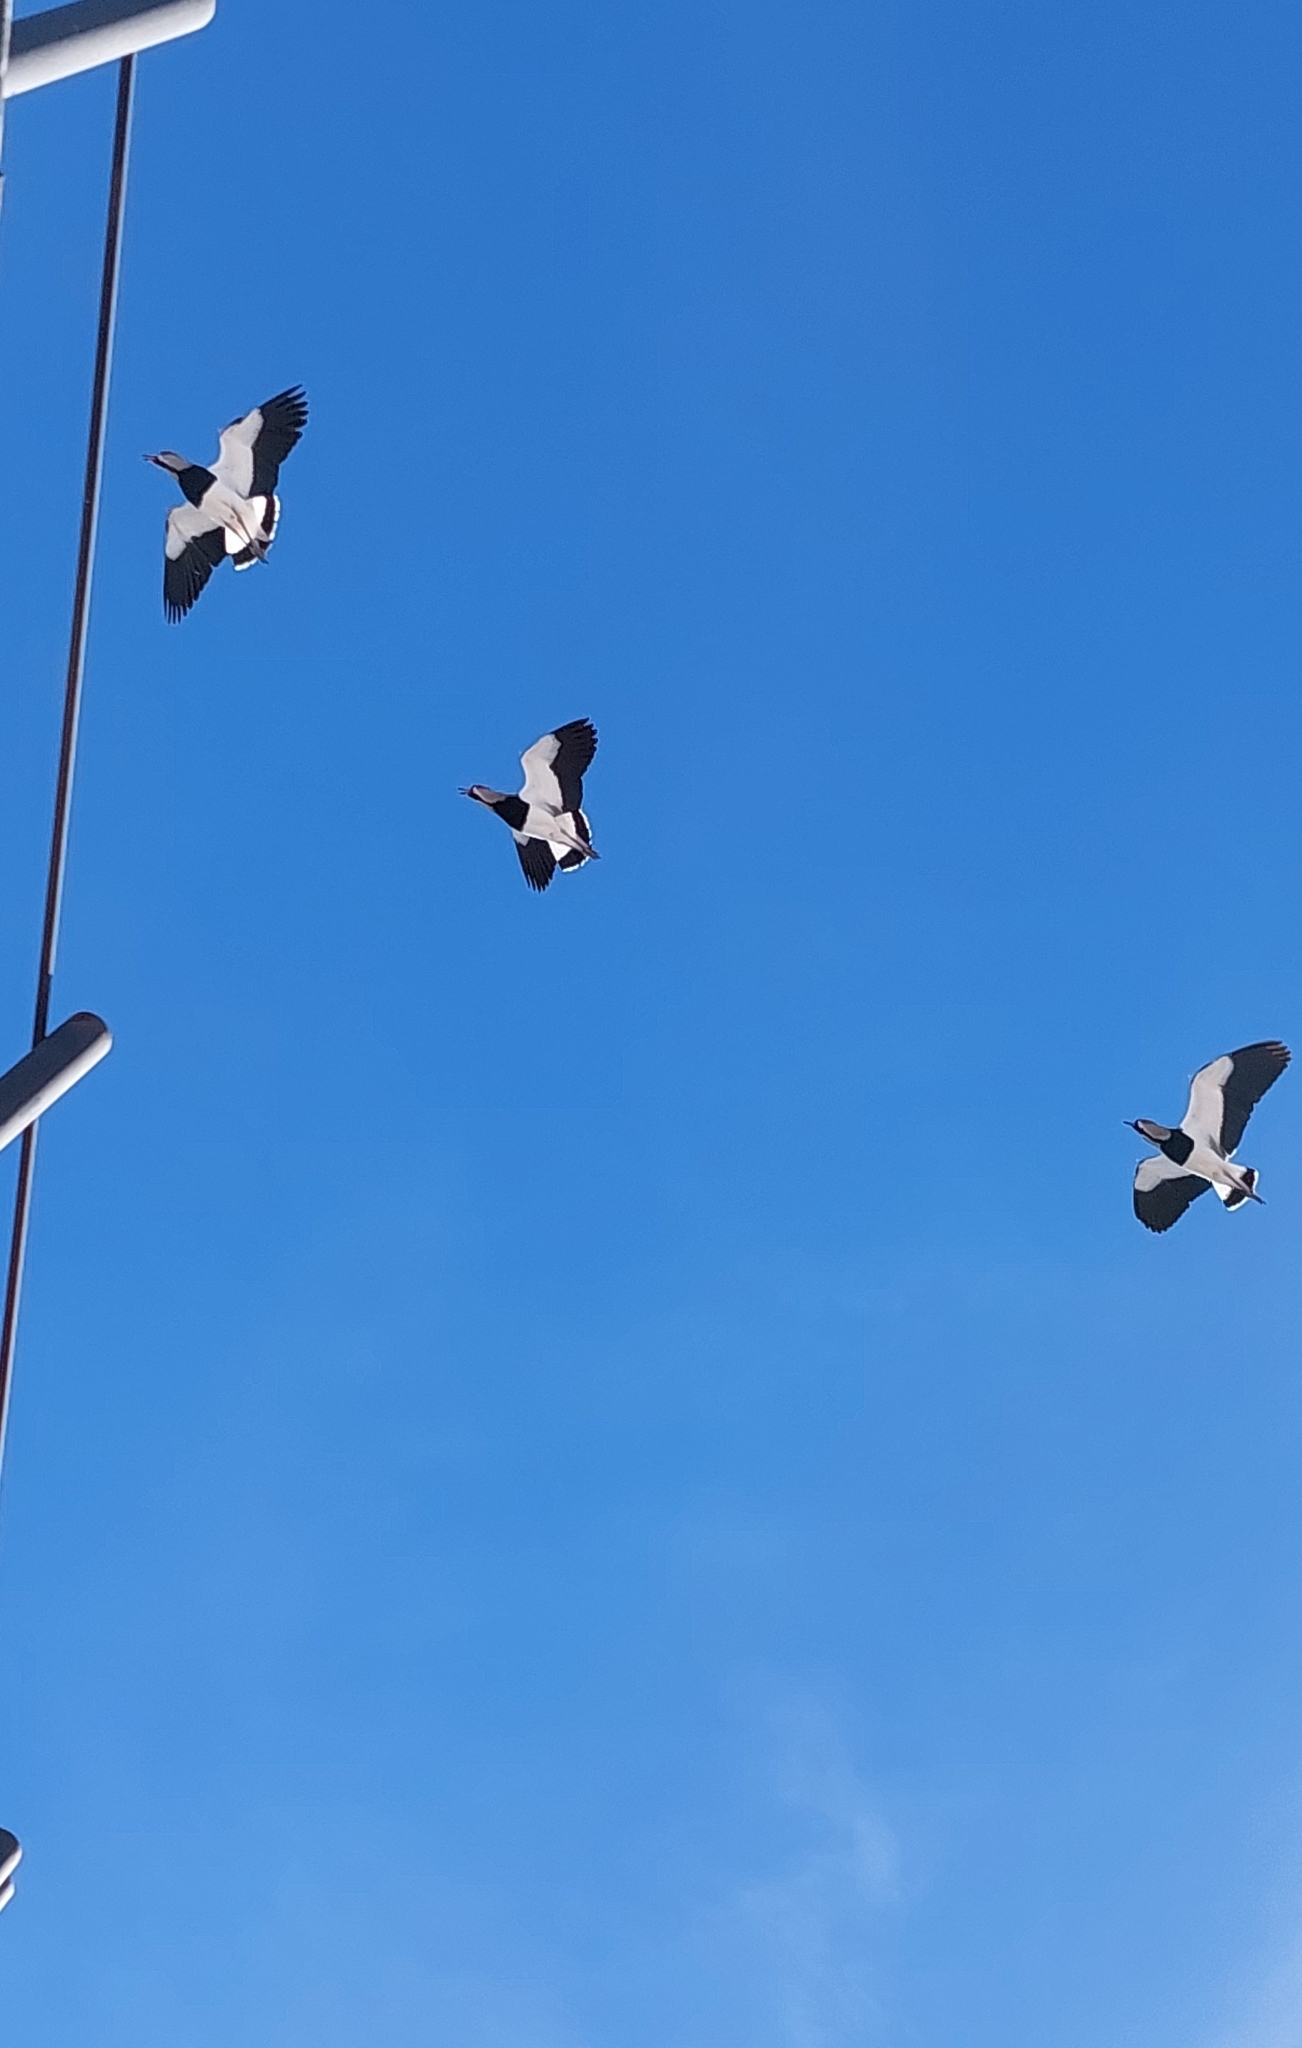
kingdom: Animalia
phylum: Chordata
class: Aves
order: Charadriiformes
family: Charadriidae
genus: Vanellus
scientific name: Vanellus chilensis
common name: Southern lapwing
